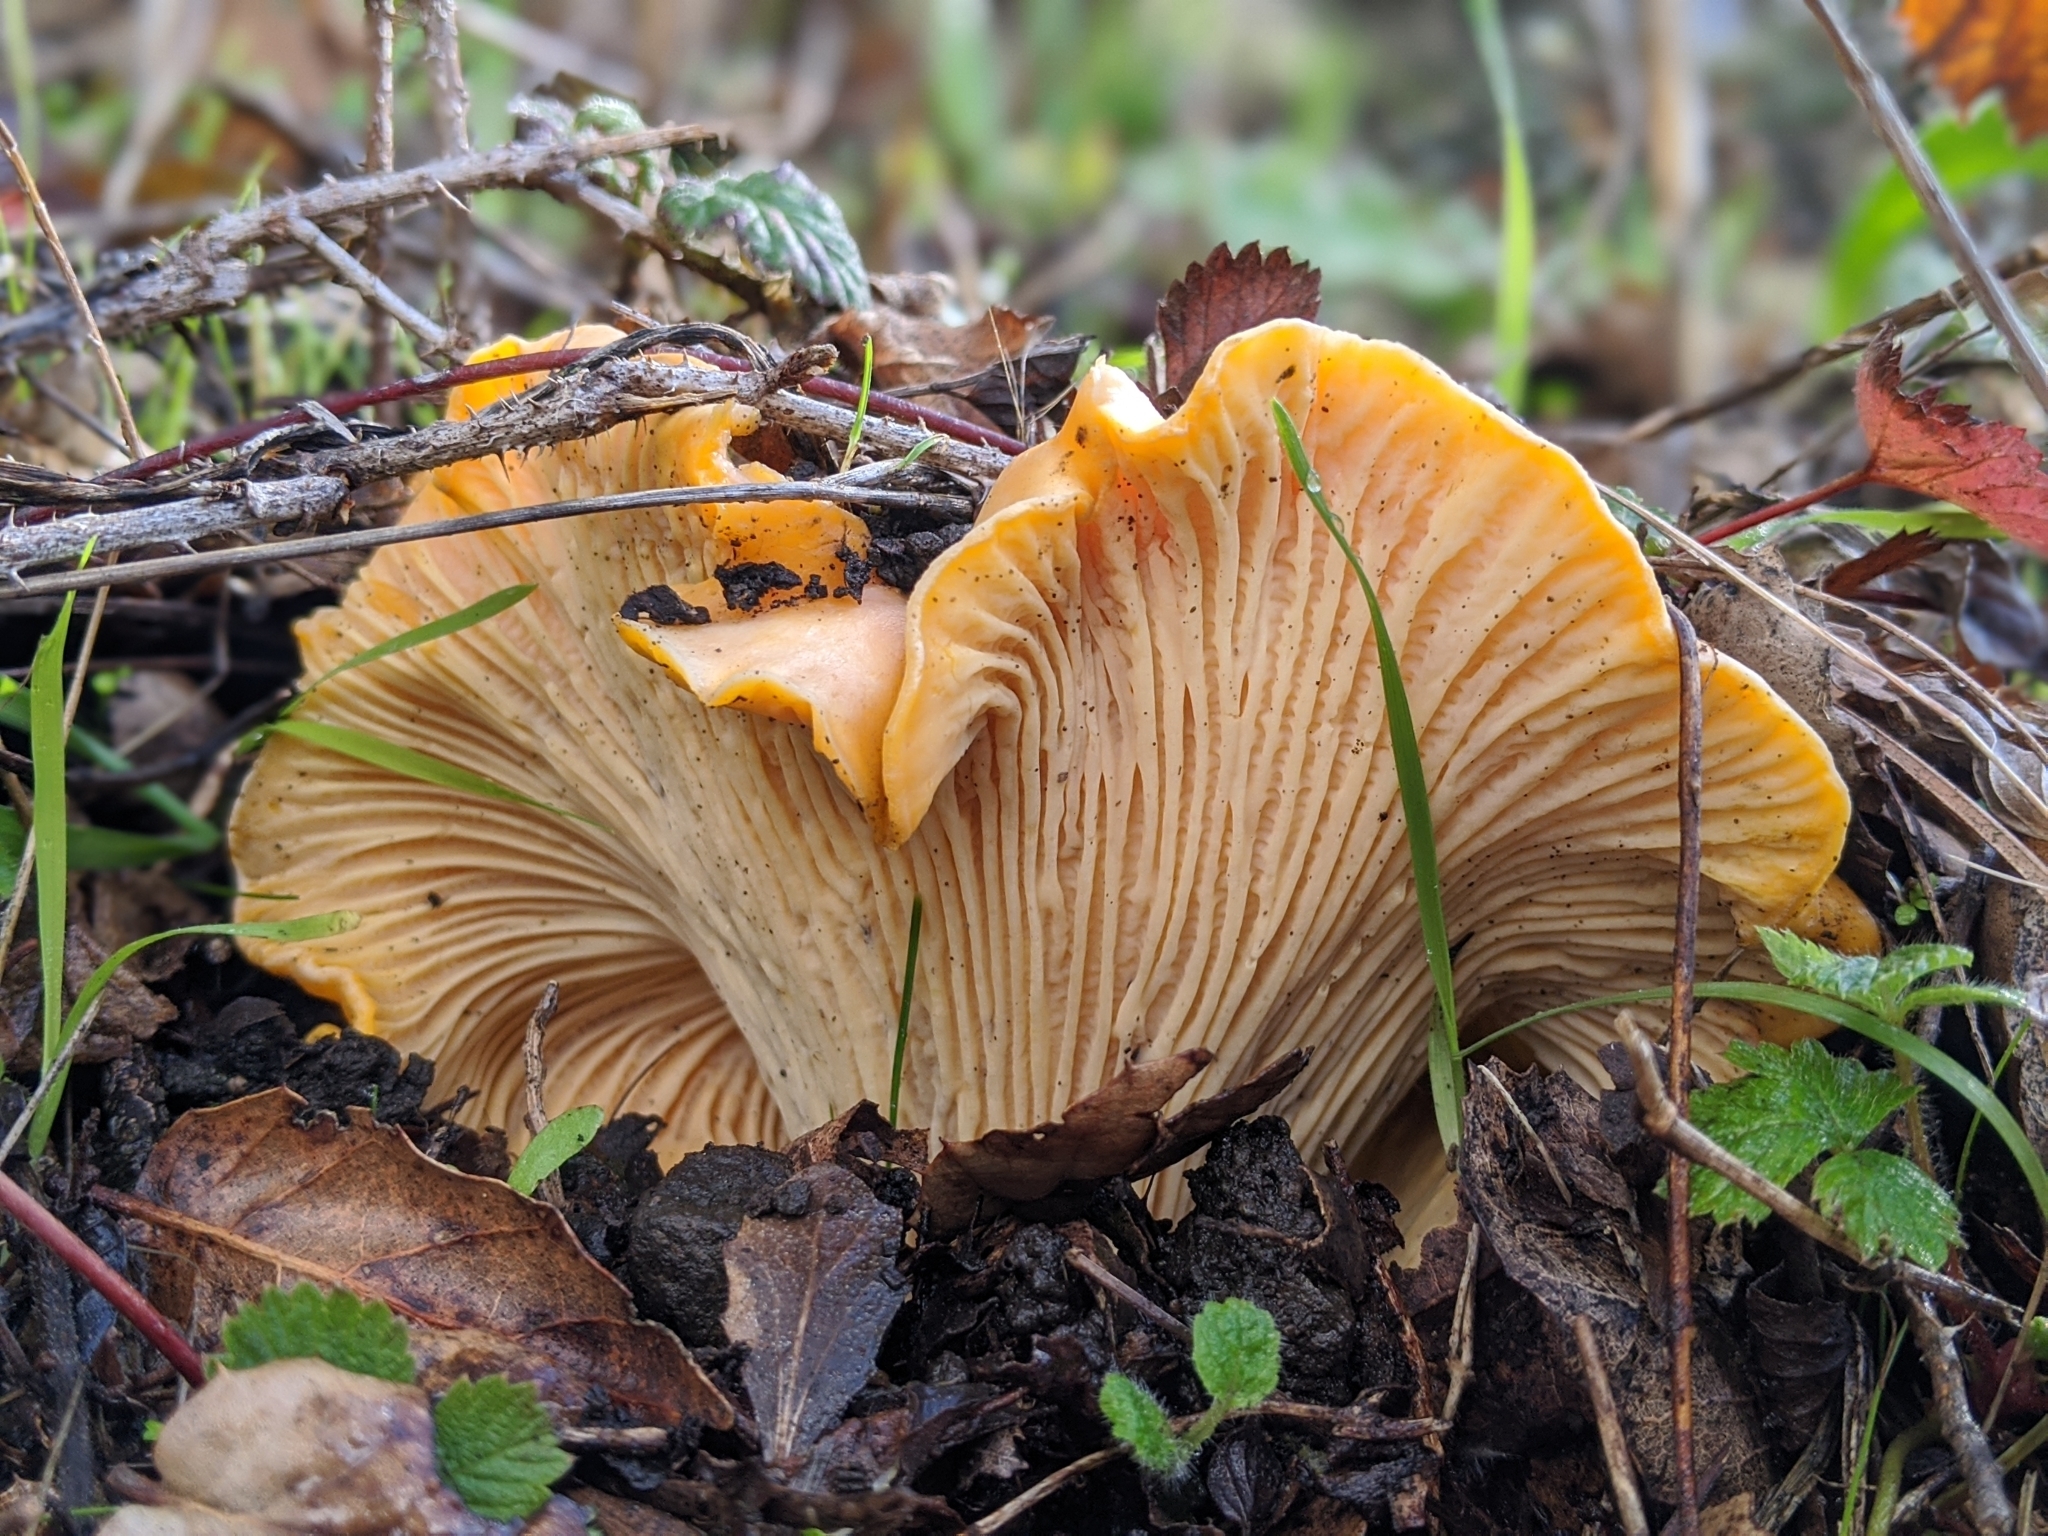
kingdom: Fungi
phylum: Basidiomycota
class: Agaricomycetes
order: Cantharellales
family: Hydnaceae
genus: Cantharellus
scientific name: Cantharellus californicus
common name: California golden chanterelle
